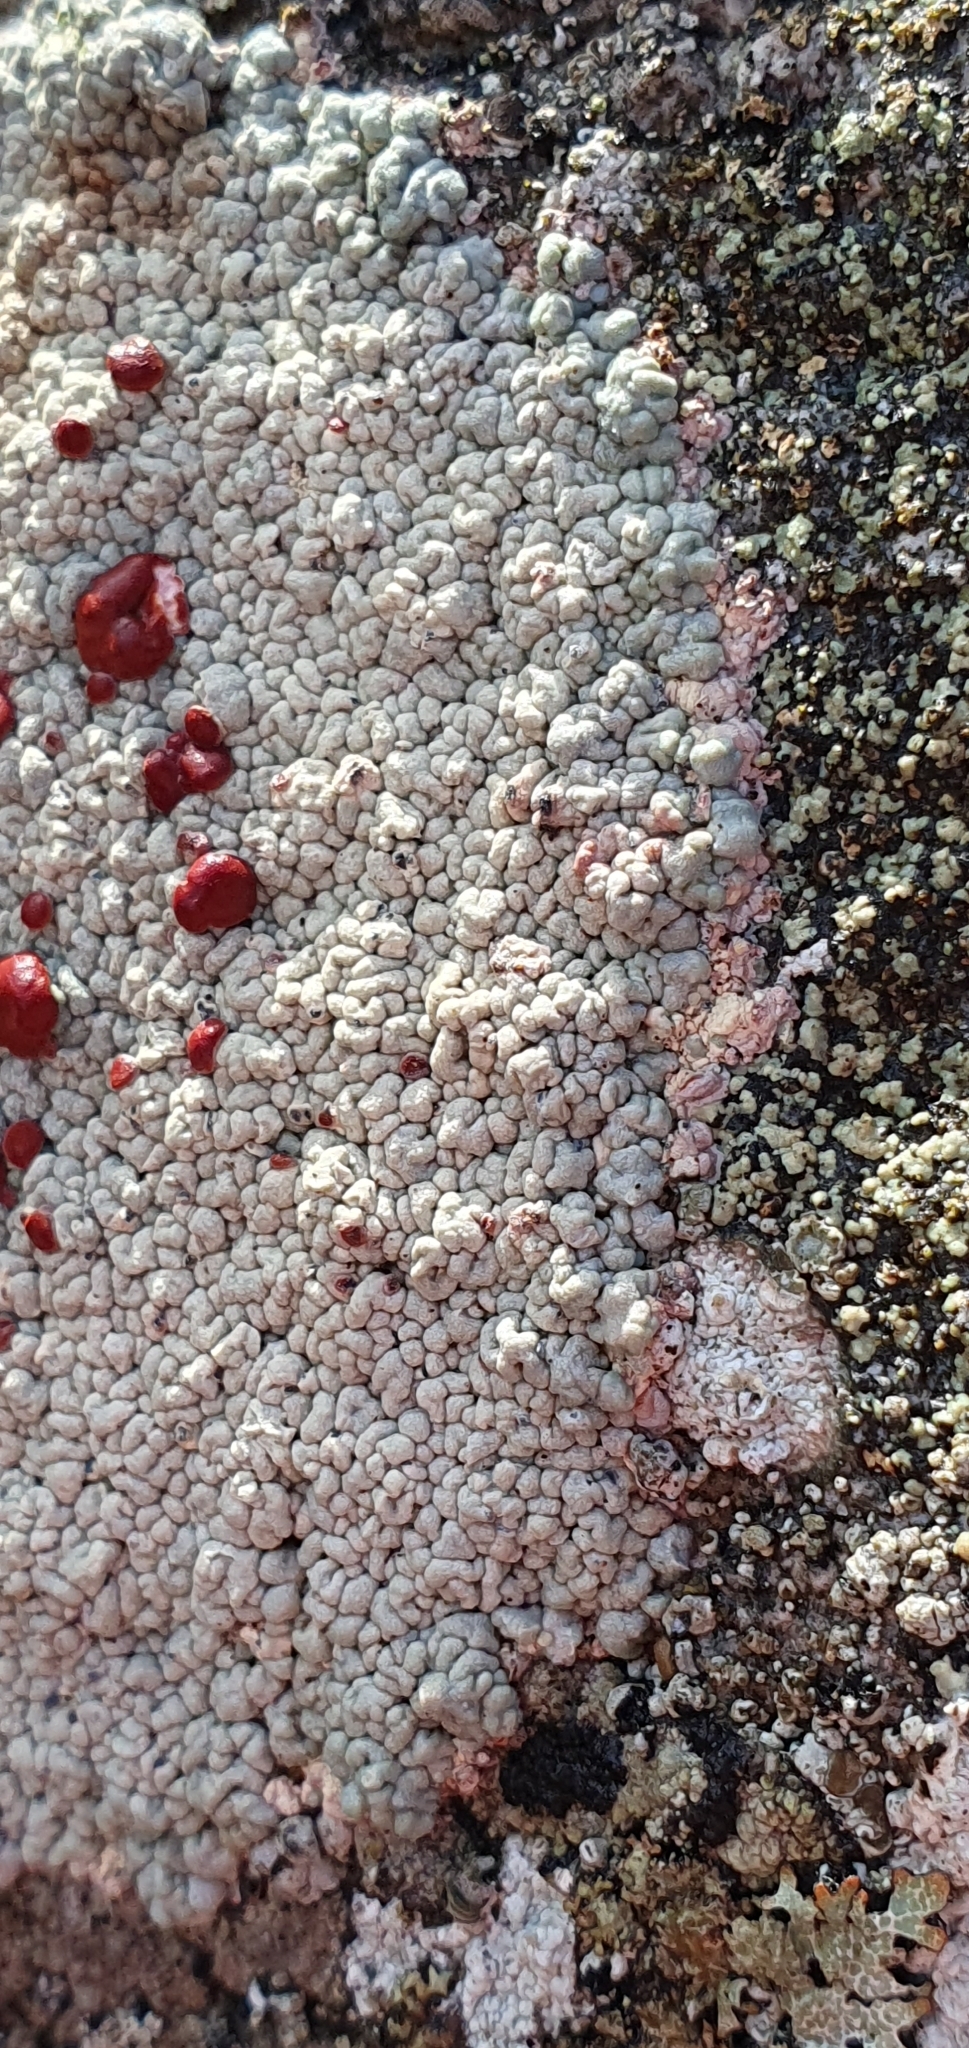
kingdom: Fungi
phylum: Ascomycota
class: Lecanoromycetes
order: Umbilicariales
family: Ophioparmaceae
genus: Ophioparma
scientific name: Ophioparma ventosa
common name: Blood-spot
